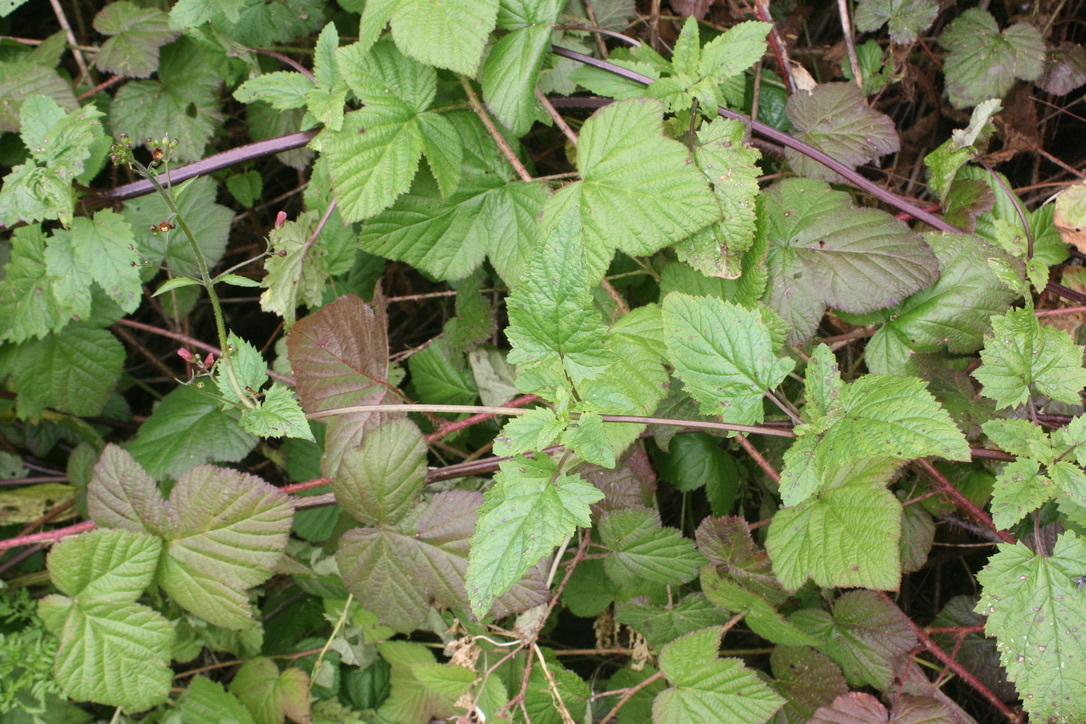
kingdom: Plantae
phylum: Tracheophyta
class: Magnoliopsida
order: Lamiales
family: Scrophulariaceae
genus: Scrophularia
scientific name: Scrophularia californica
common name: California figwort
